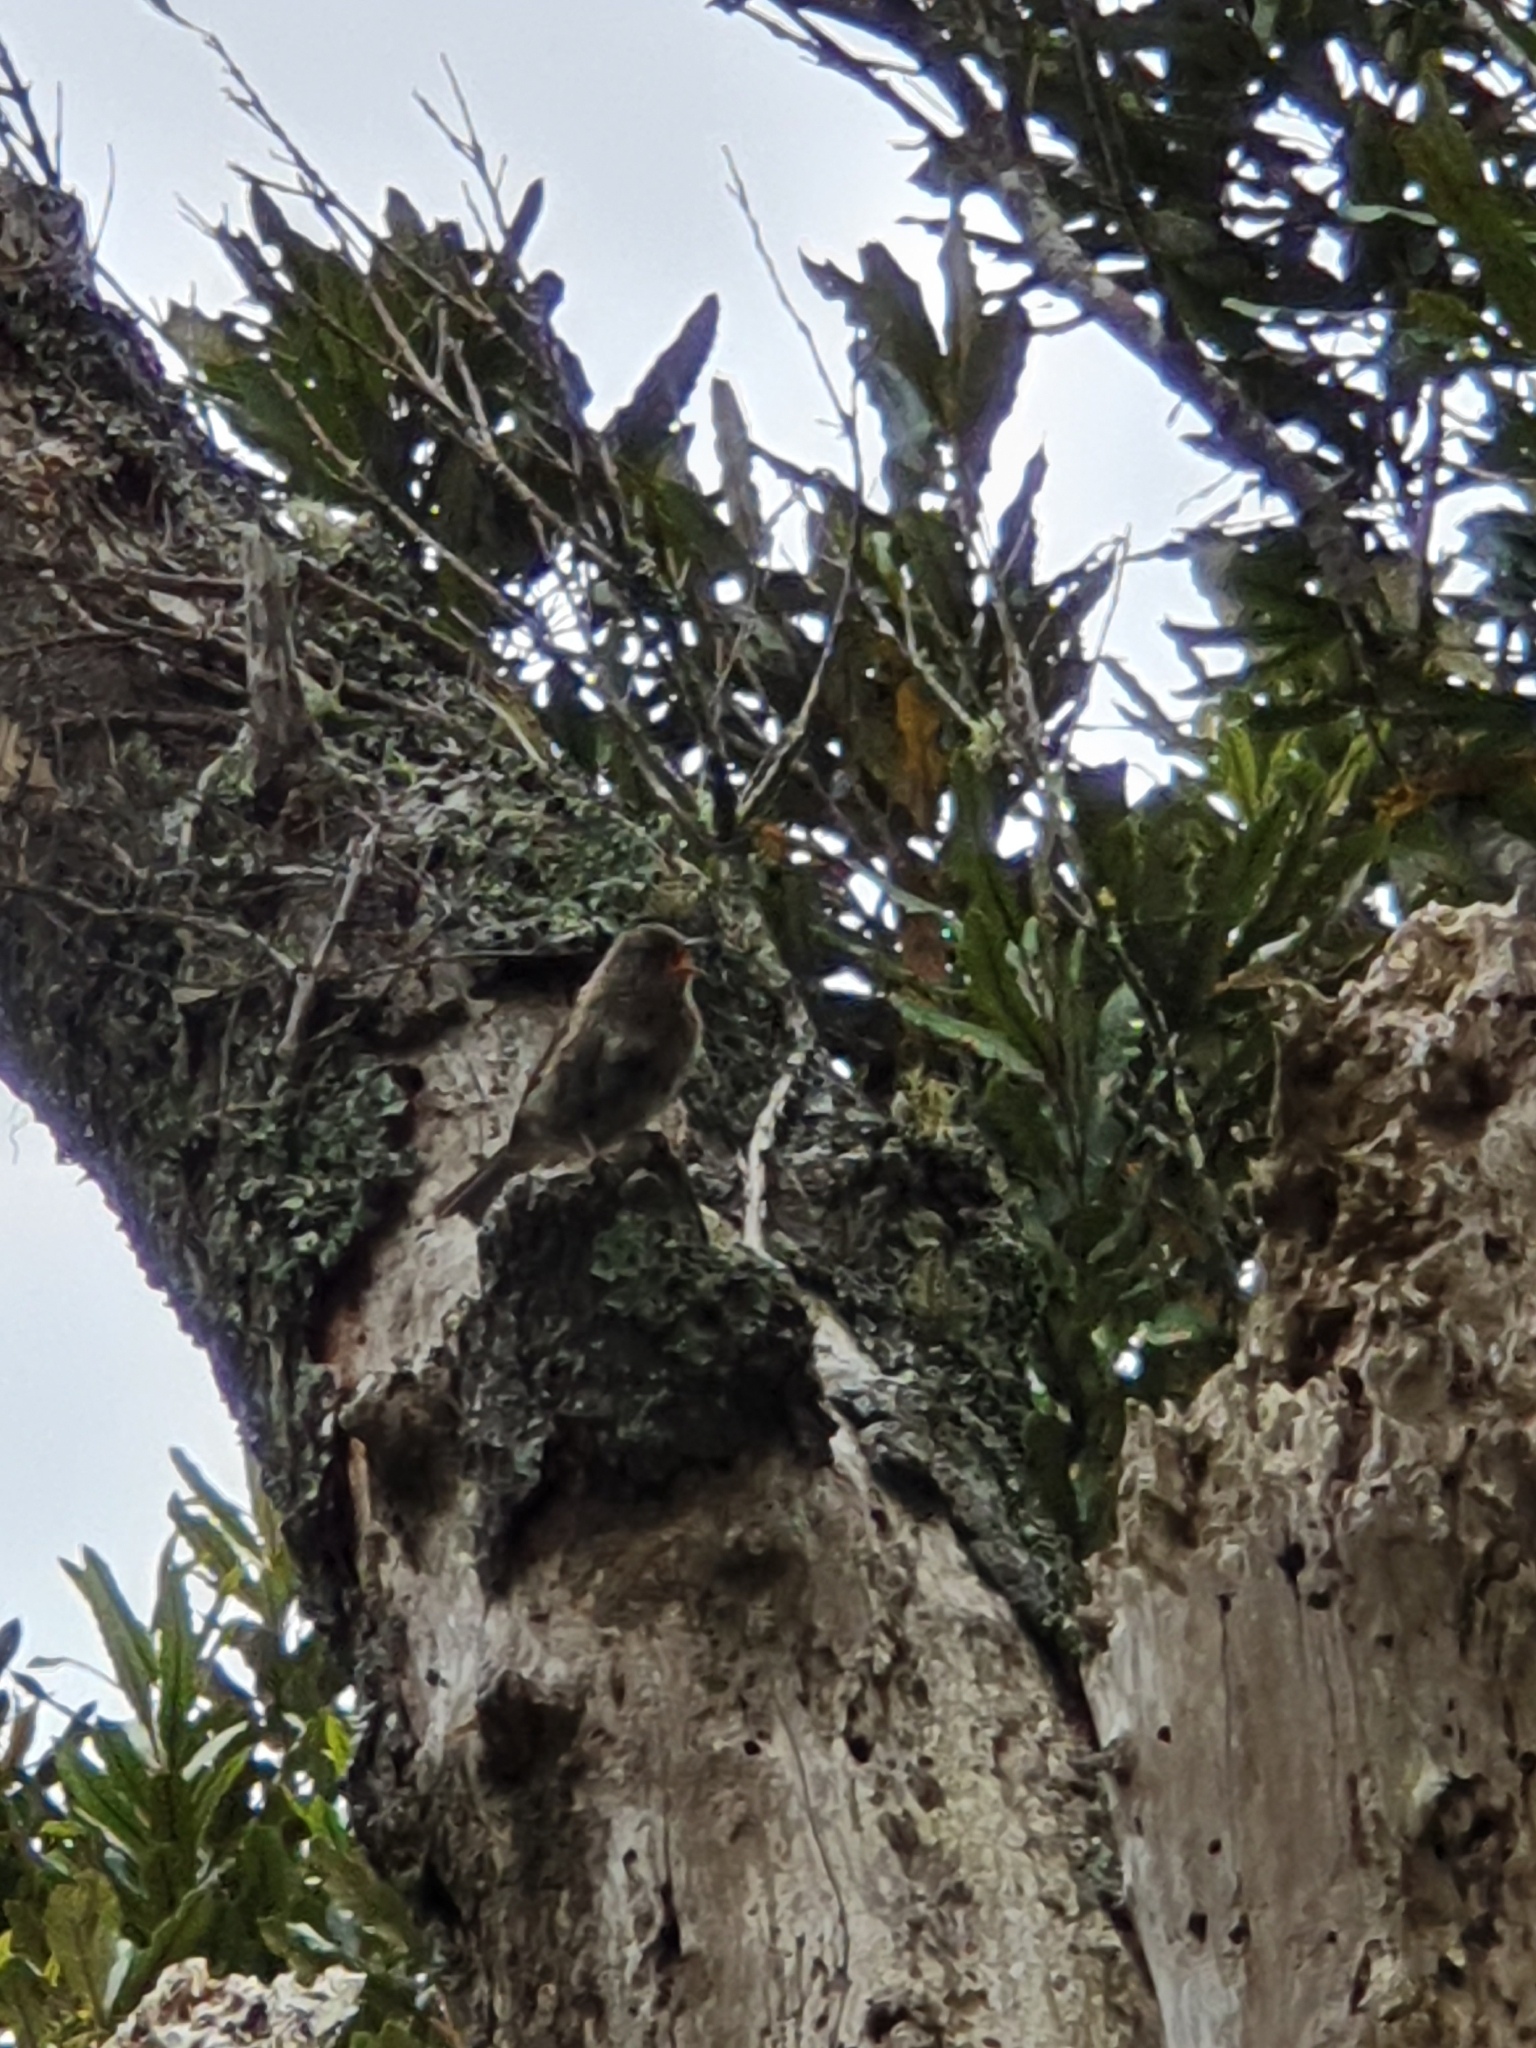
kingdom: Animalia
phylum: Chordata
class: Aves
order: Passeriformes
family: Prunellidae
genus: Prunella
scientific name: Prunella modularis
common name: Dunnock
